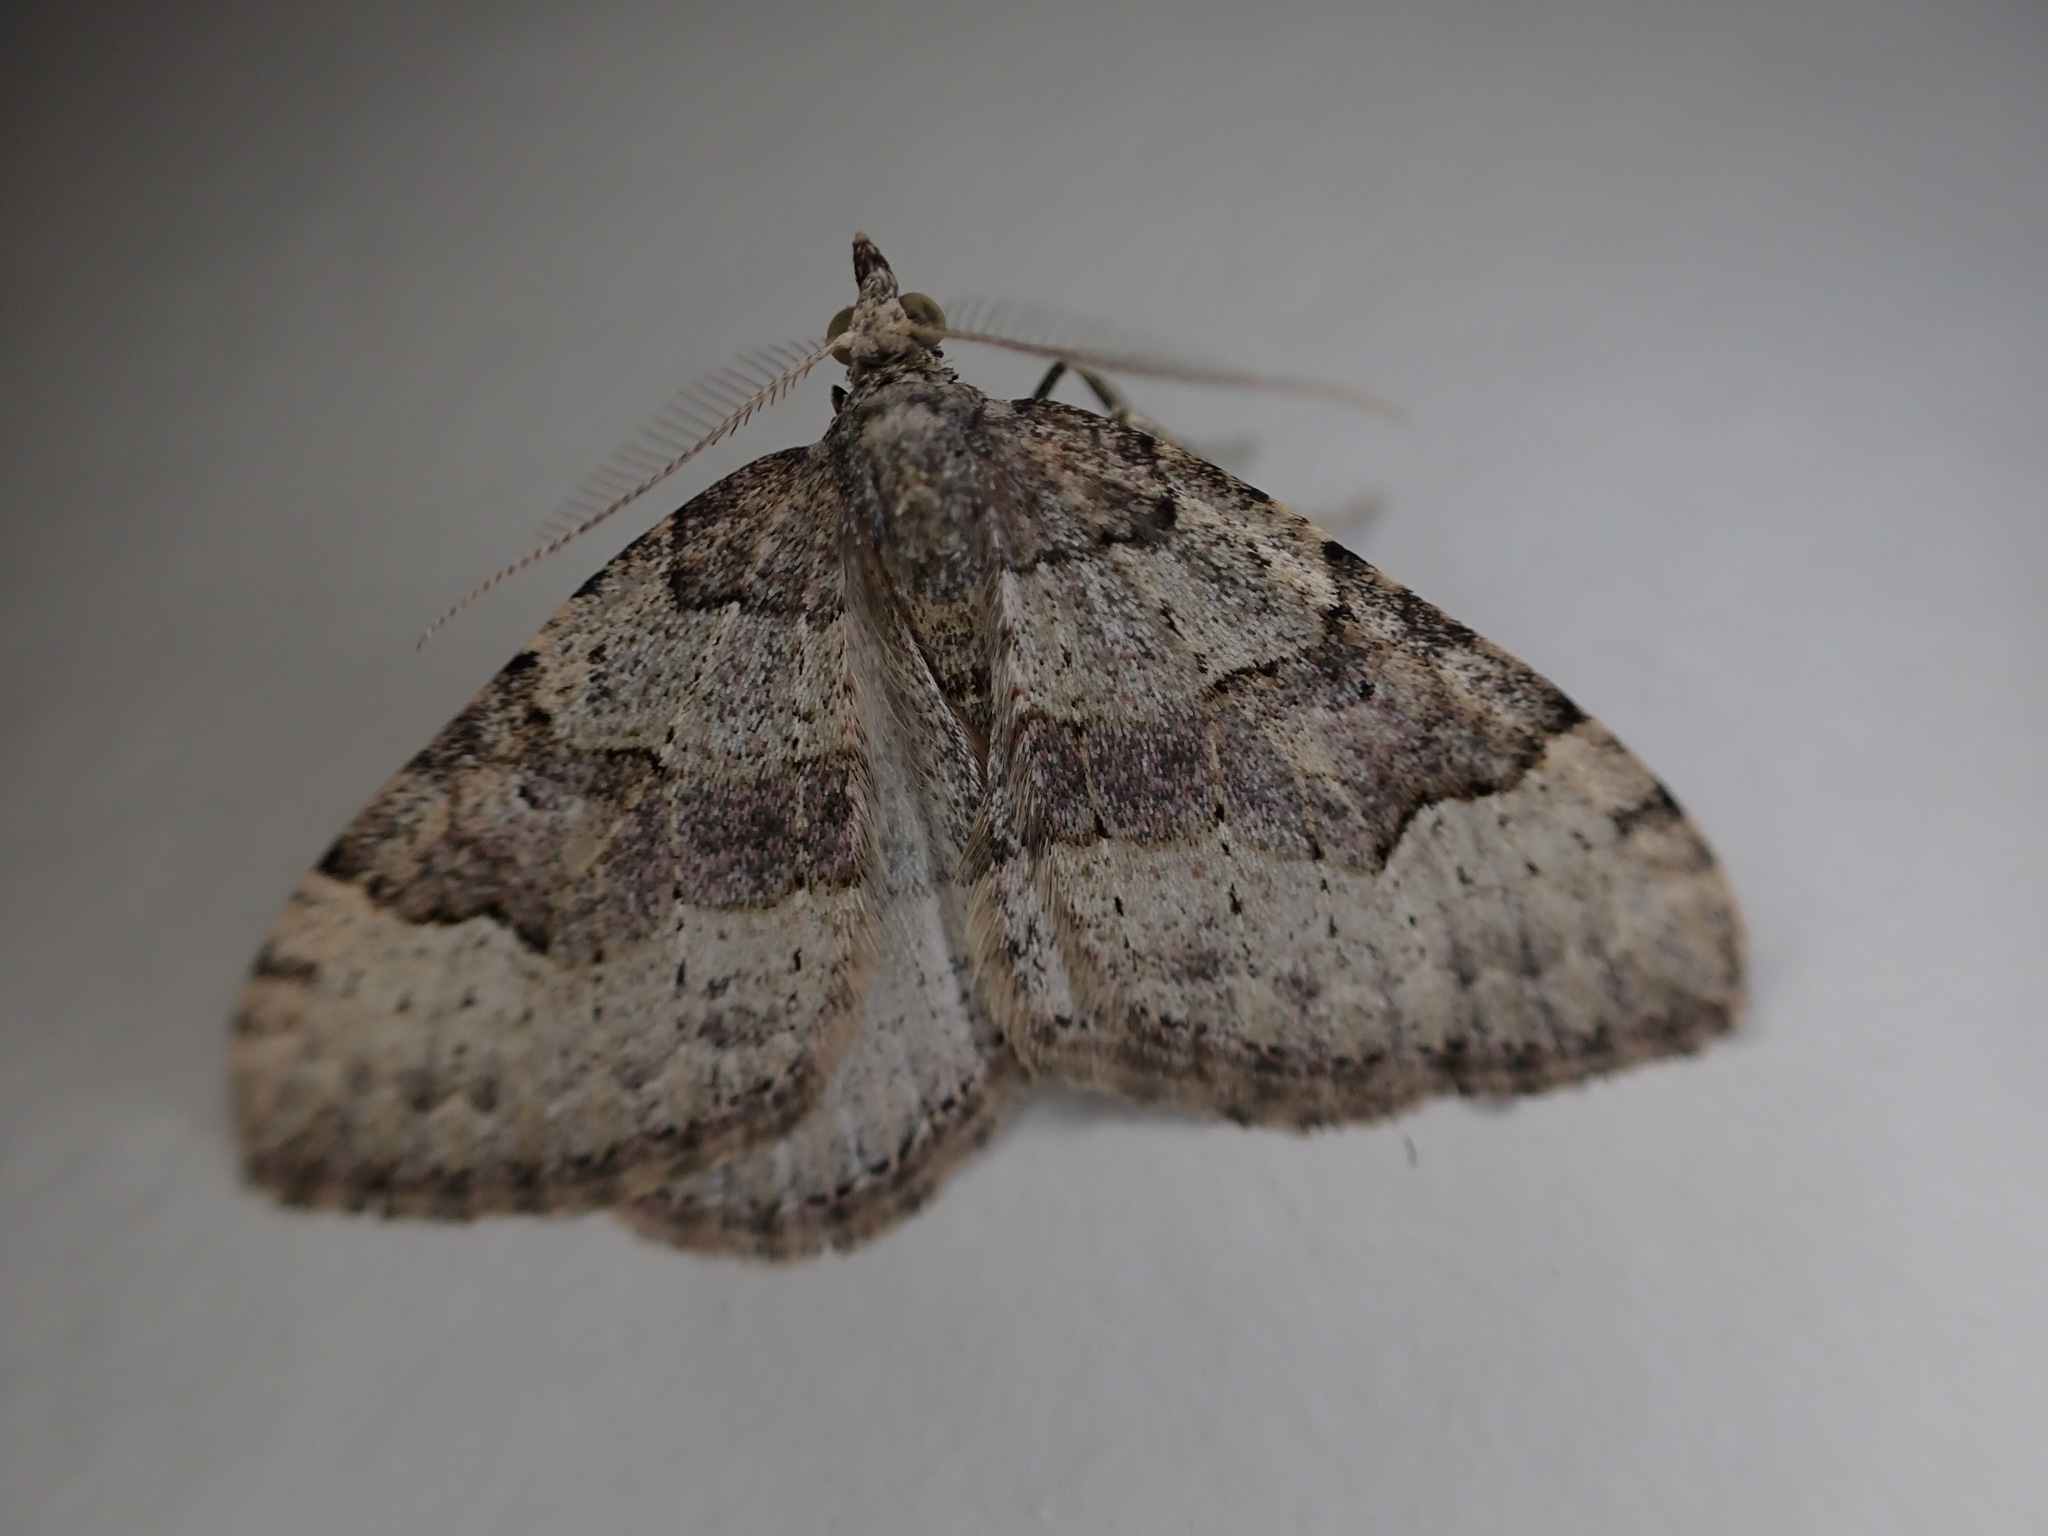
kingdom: Animalia
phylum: Arthropoda
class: Insecta
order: Lepidoptera
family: Geometridae
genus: Epyaxa
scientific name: Epyaxa rosearia
